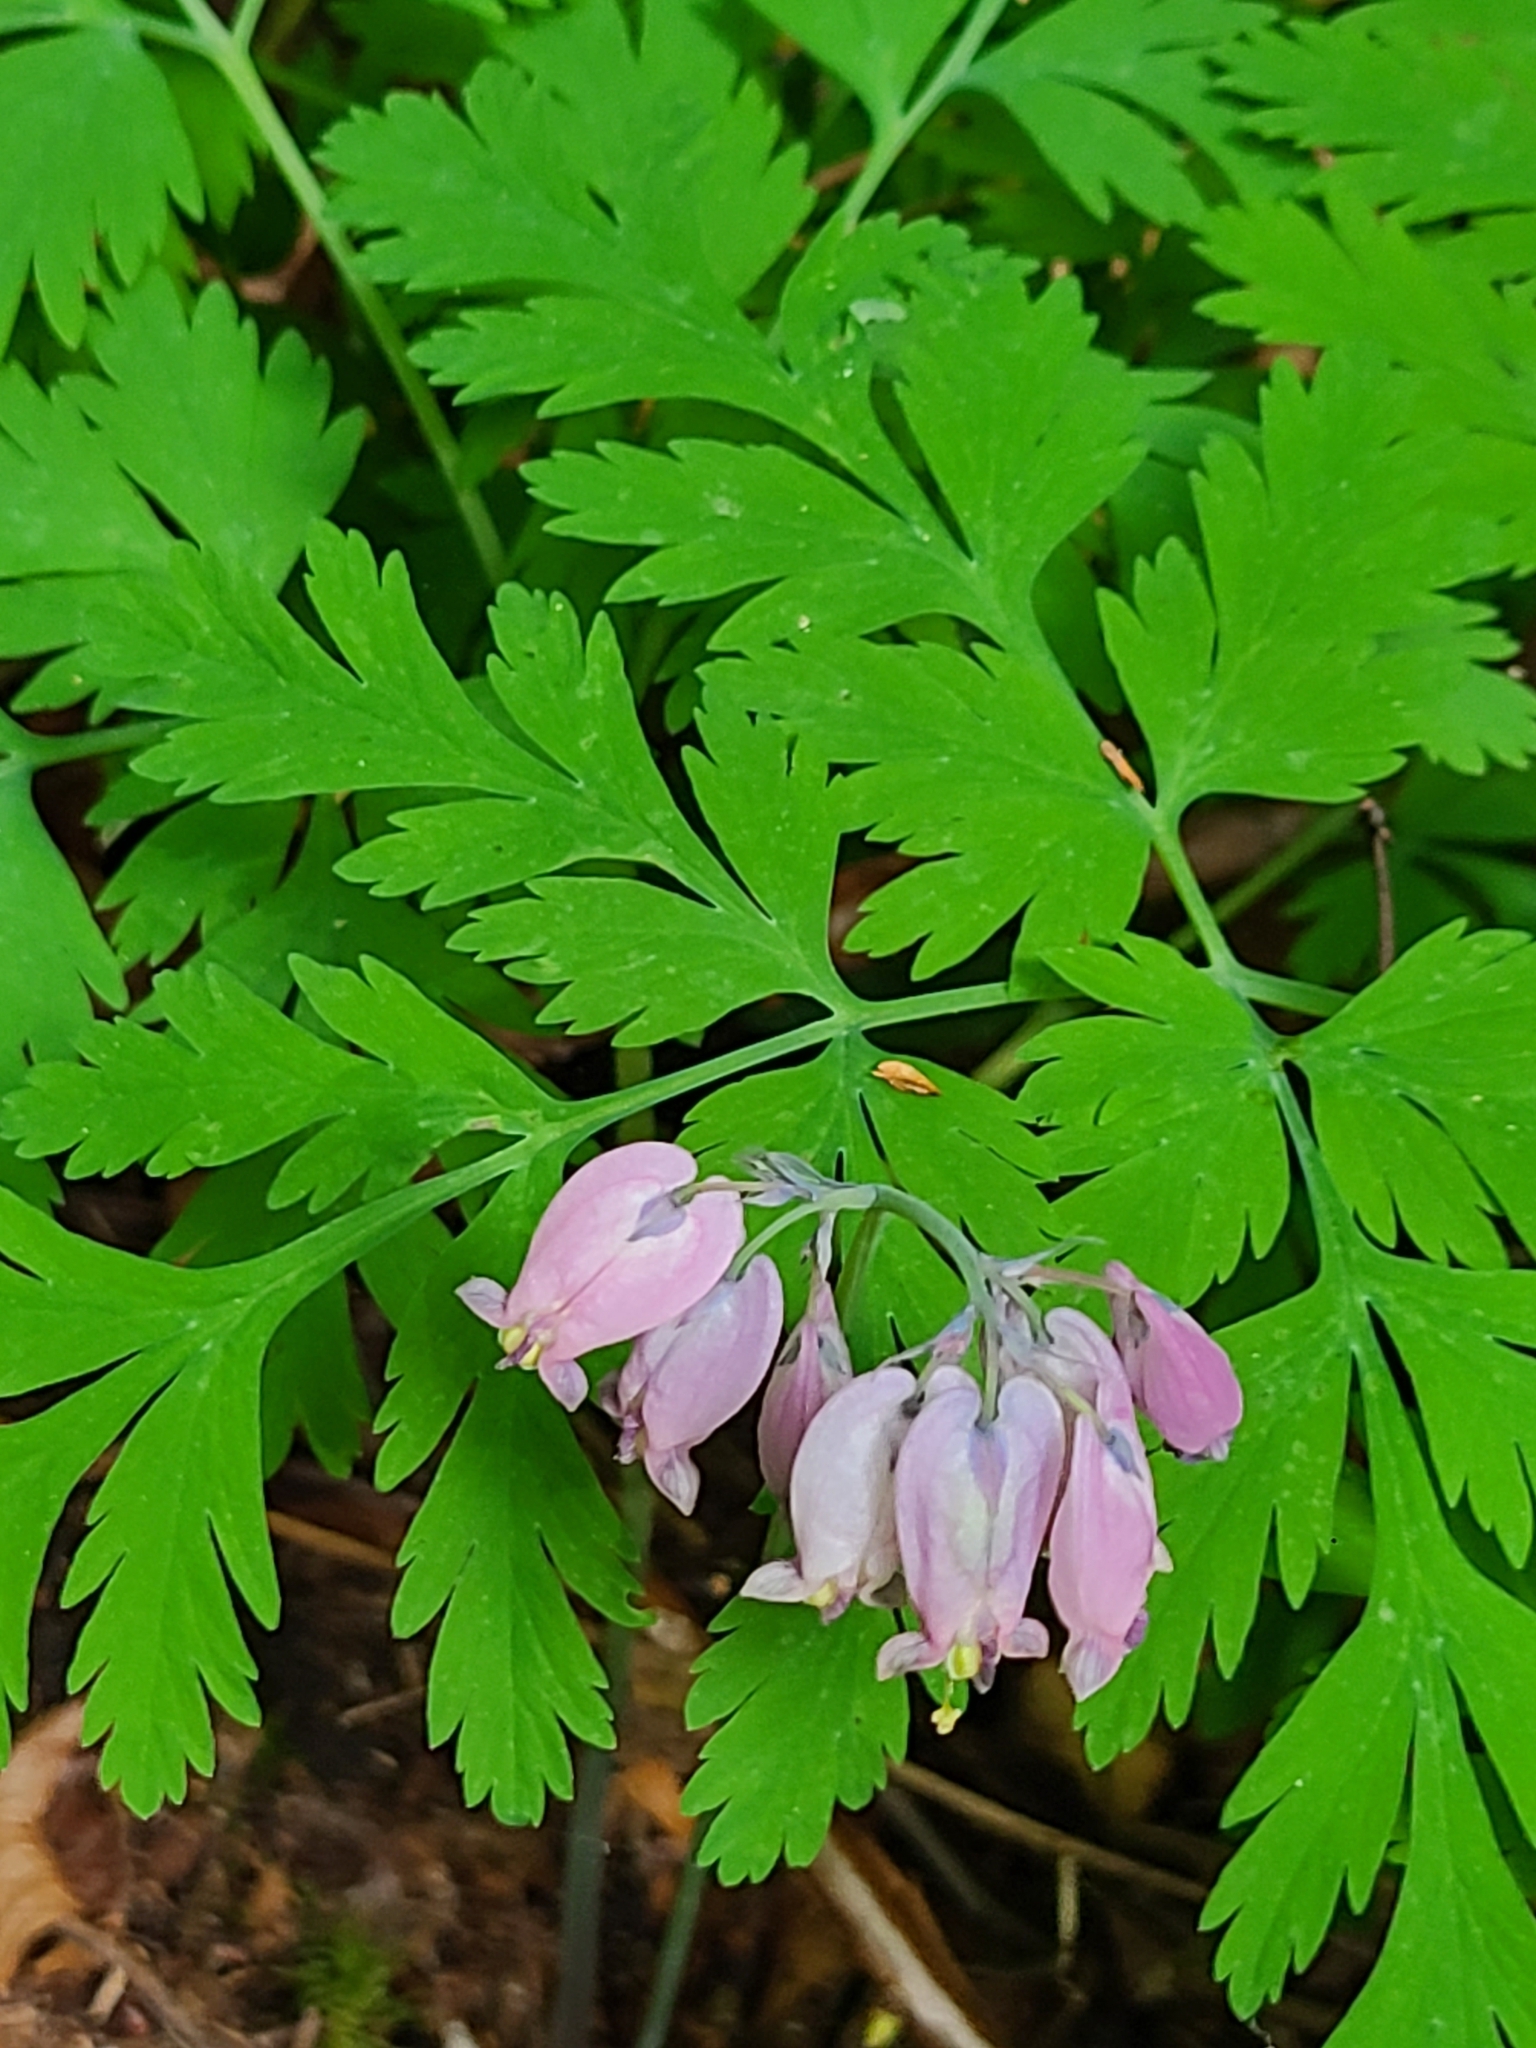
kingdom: Plantae
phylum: Tracheophyta
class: Magnoliopsida
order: Ranunculales
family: Papaveraceae
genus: Dicentra
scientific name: Dicentra formosa
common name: Bleeding-heart
